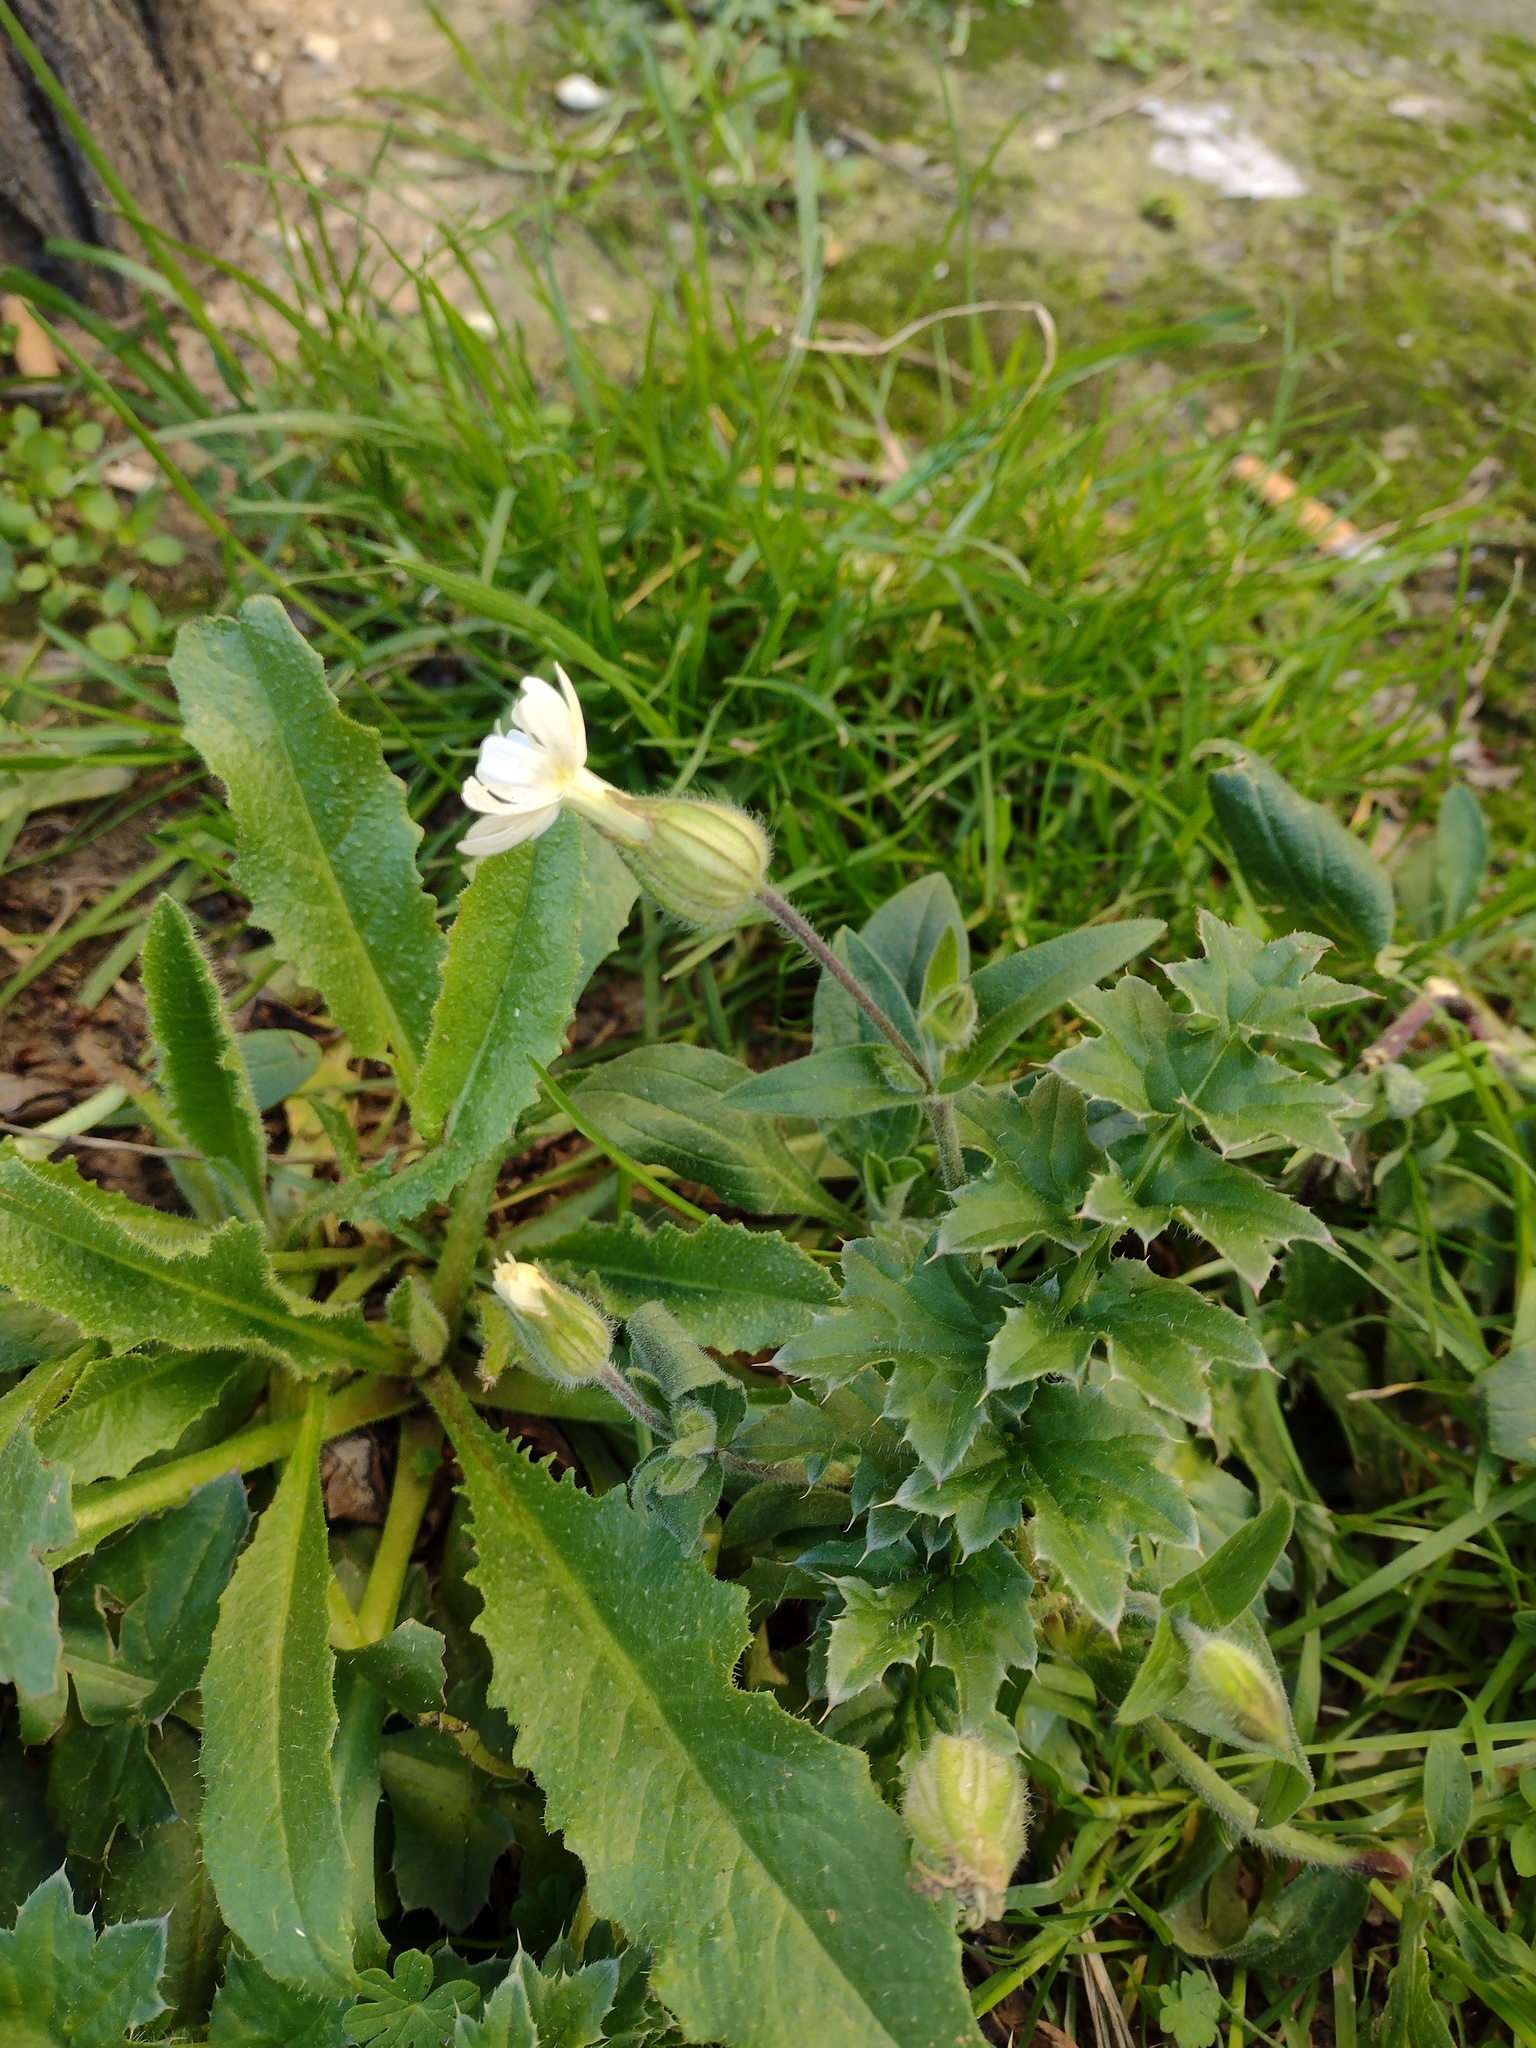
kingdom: Plantae
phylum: Tracheophyta
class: Magnoliopsida
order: Caryophyllales
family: Caryophyllaceae
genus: Silene
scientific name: Silene latifolia
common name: White campion
